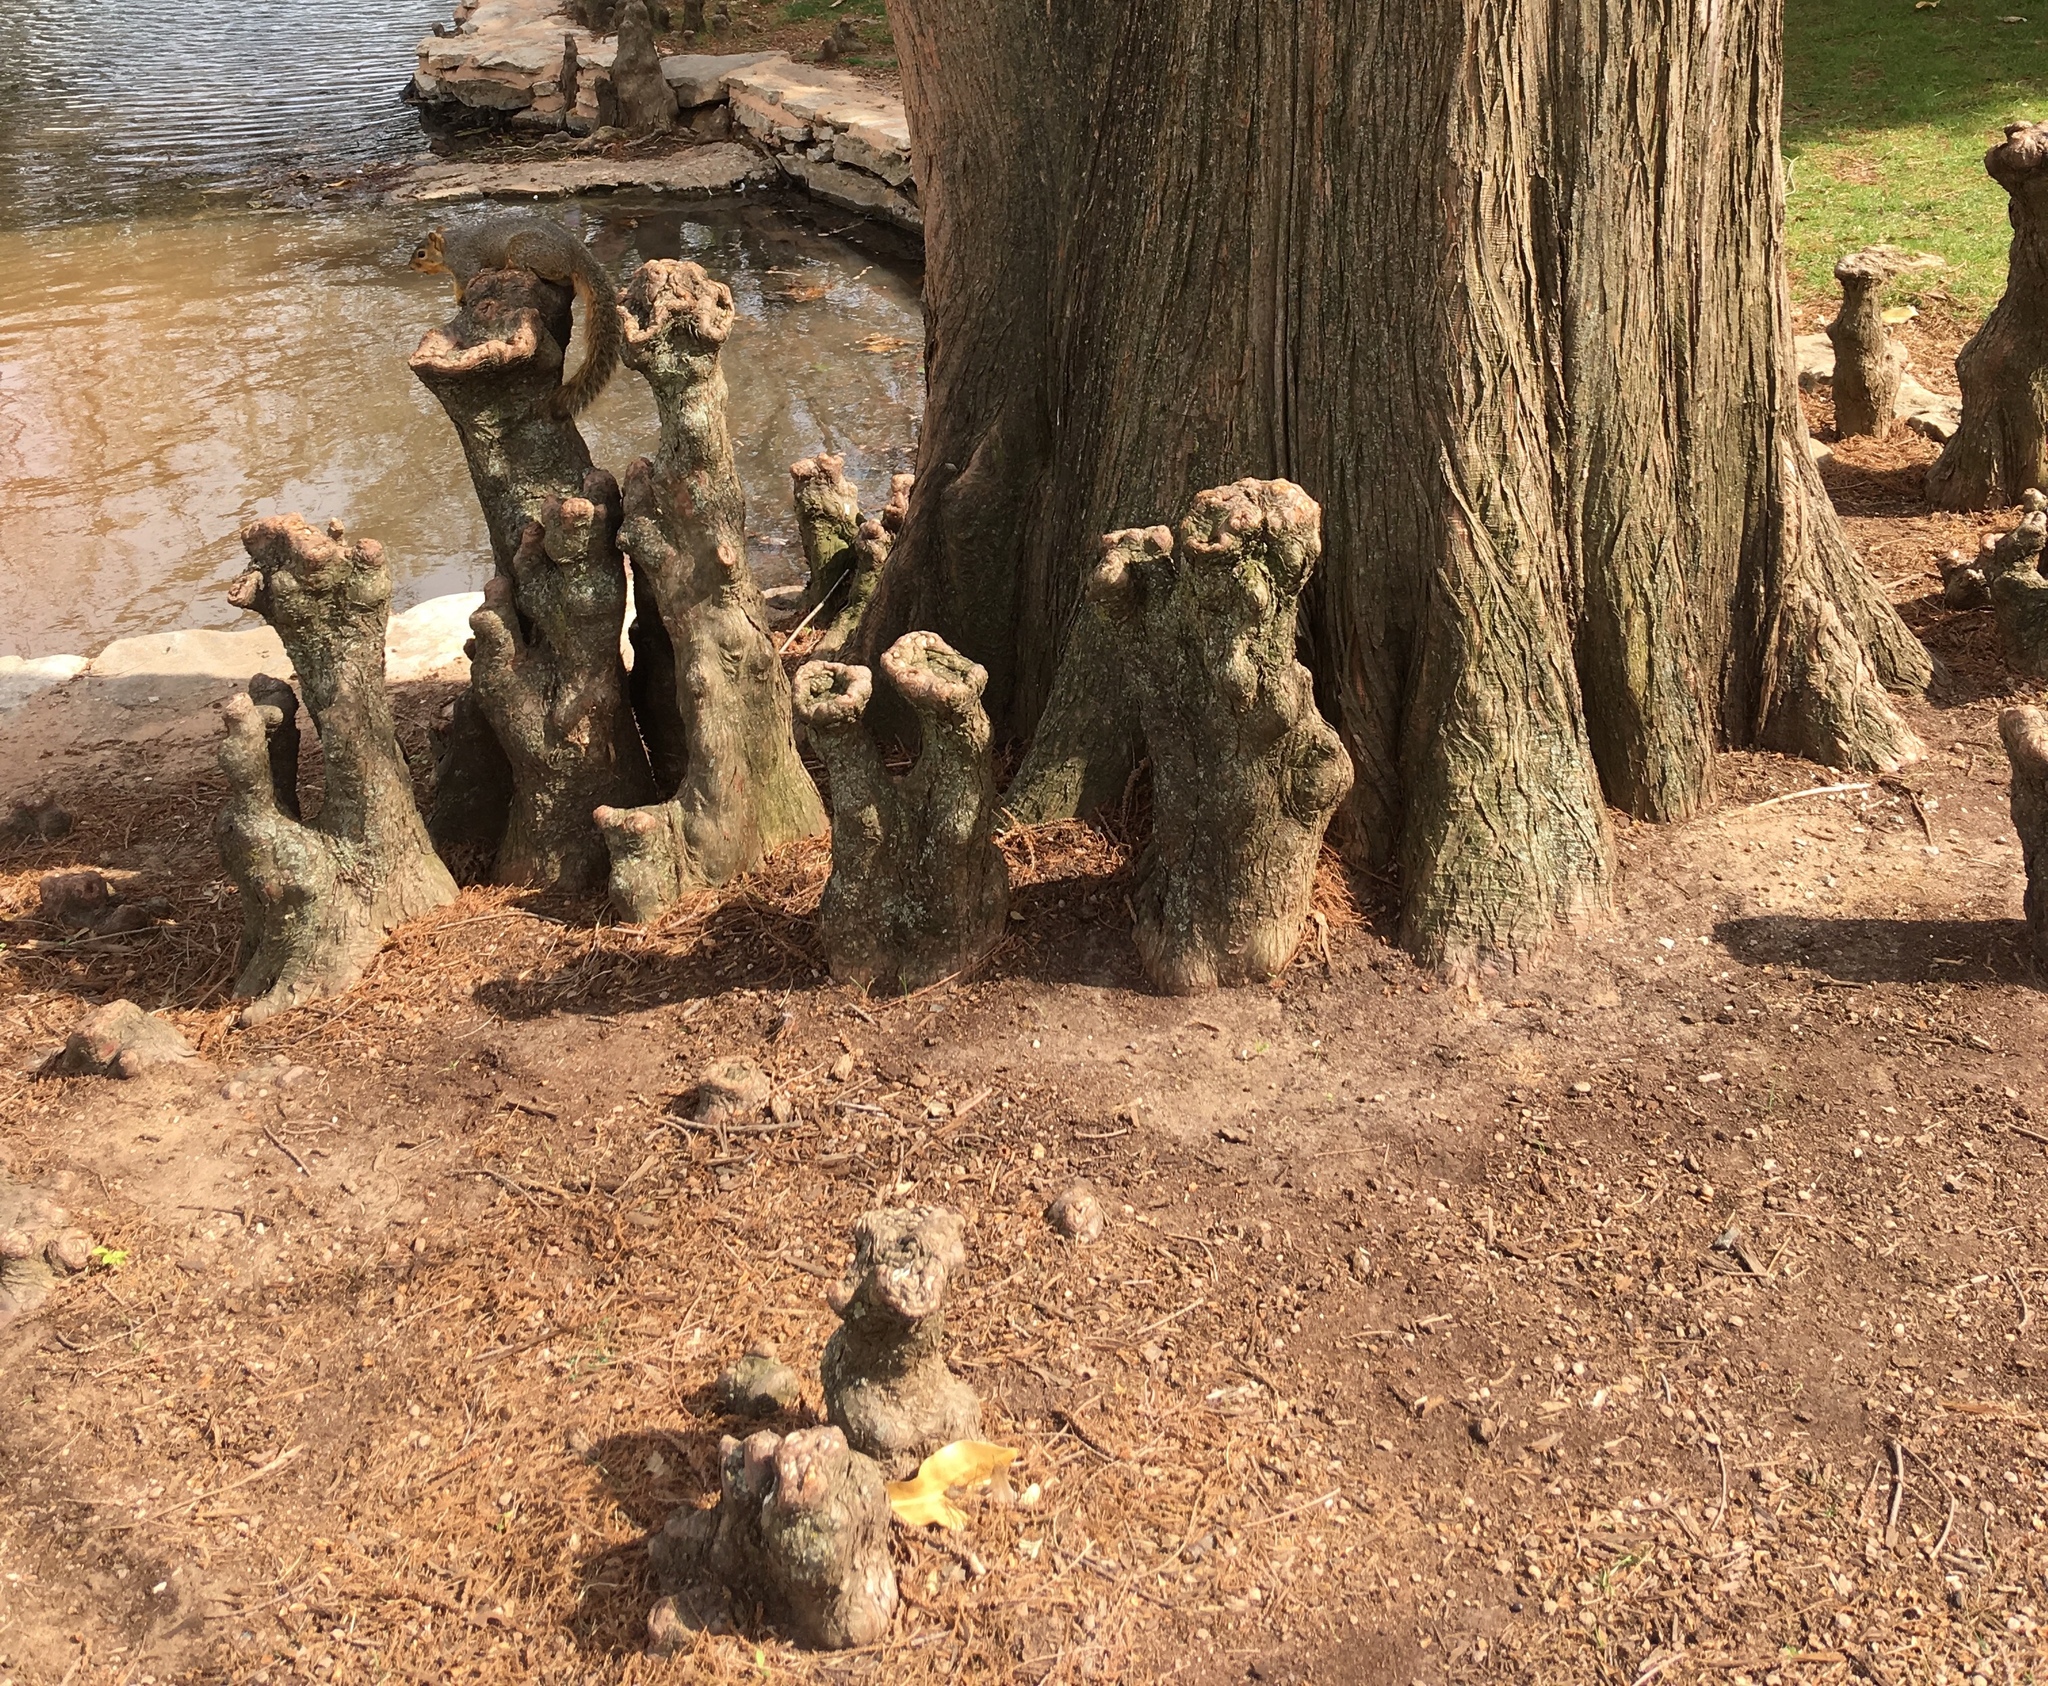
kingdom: Animalia
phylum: Chordata
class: Mammalia
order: Rodentia
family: Sciuridae
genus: Sciurus
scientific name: Sciurus niger
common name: Fox squirrel
